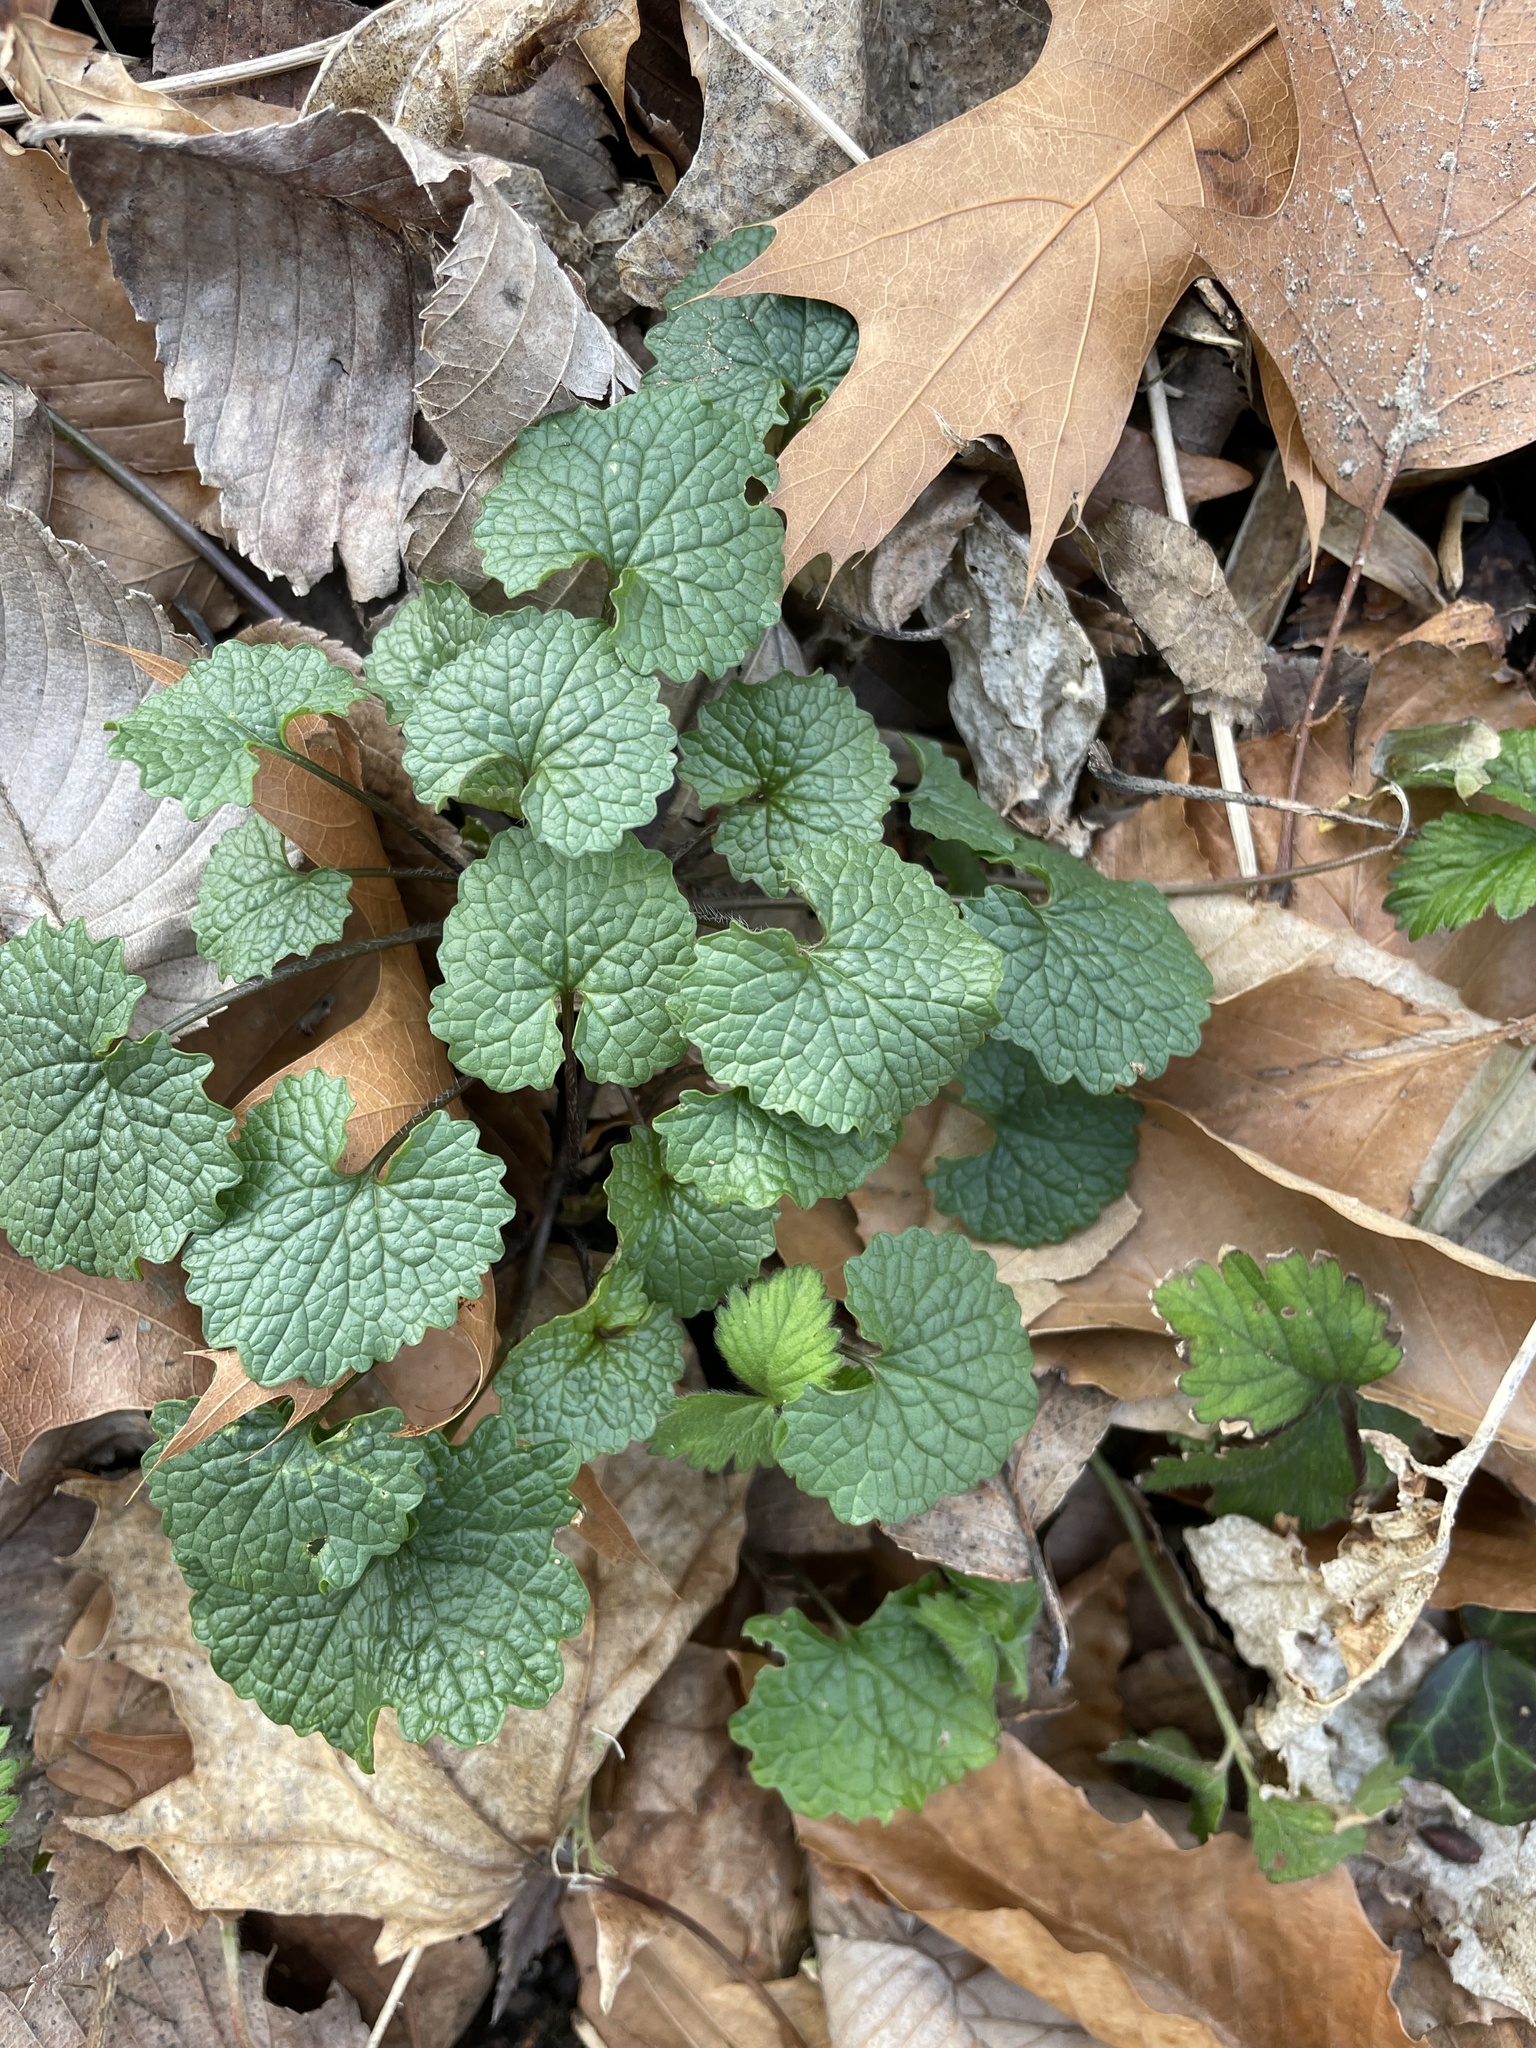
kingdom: Plantae
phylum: Tracheophyta
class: Magnoliopsida
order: Brassicales
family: Brassicaceae
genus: Alliaria
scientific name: Alliaria petiolata
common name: Garlic mustard
